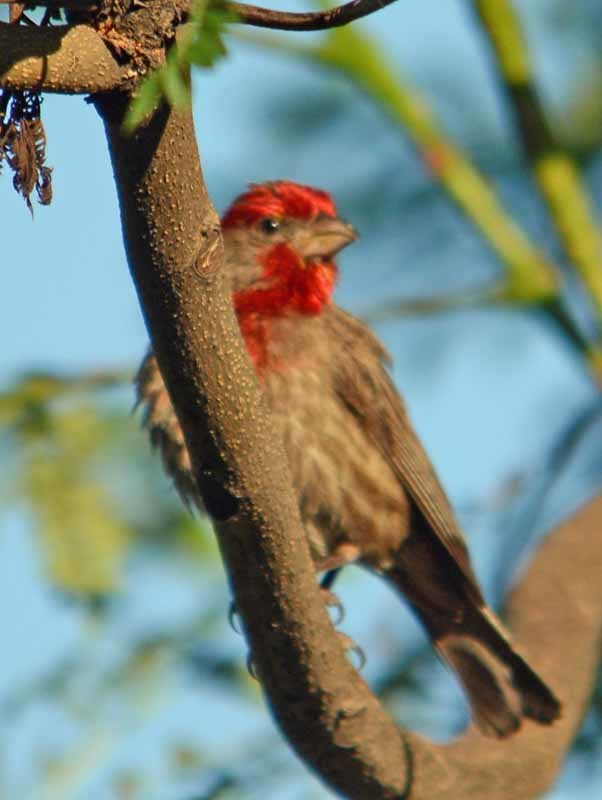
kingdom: Animalia
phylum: Chordata
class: Aves
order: Passeriformes
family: Fringillidae
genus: Haemorhous
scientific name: Haemorhous mexicanus
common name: House finch
